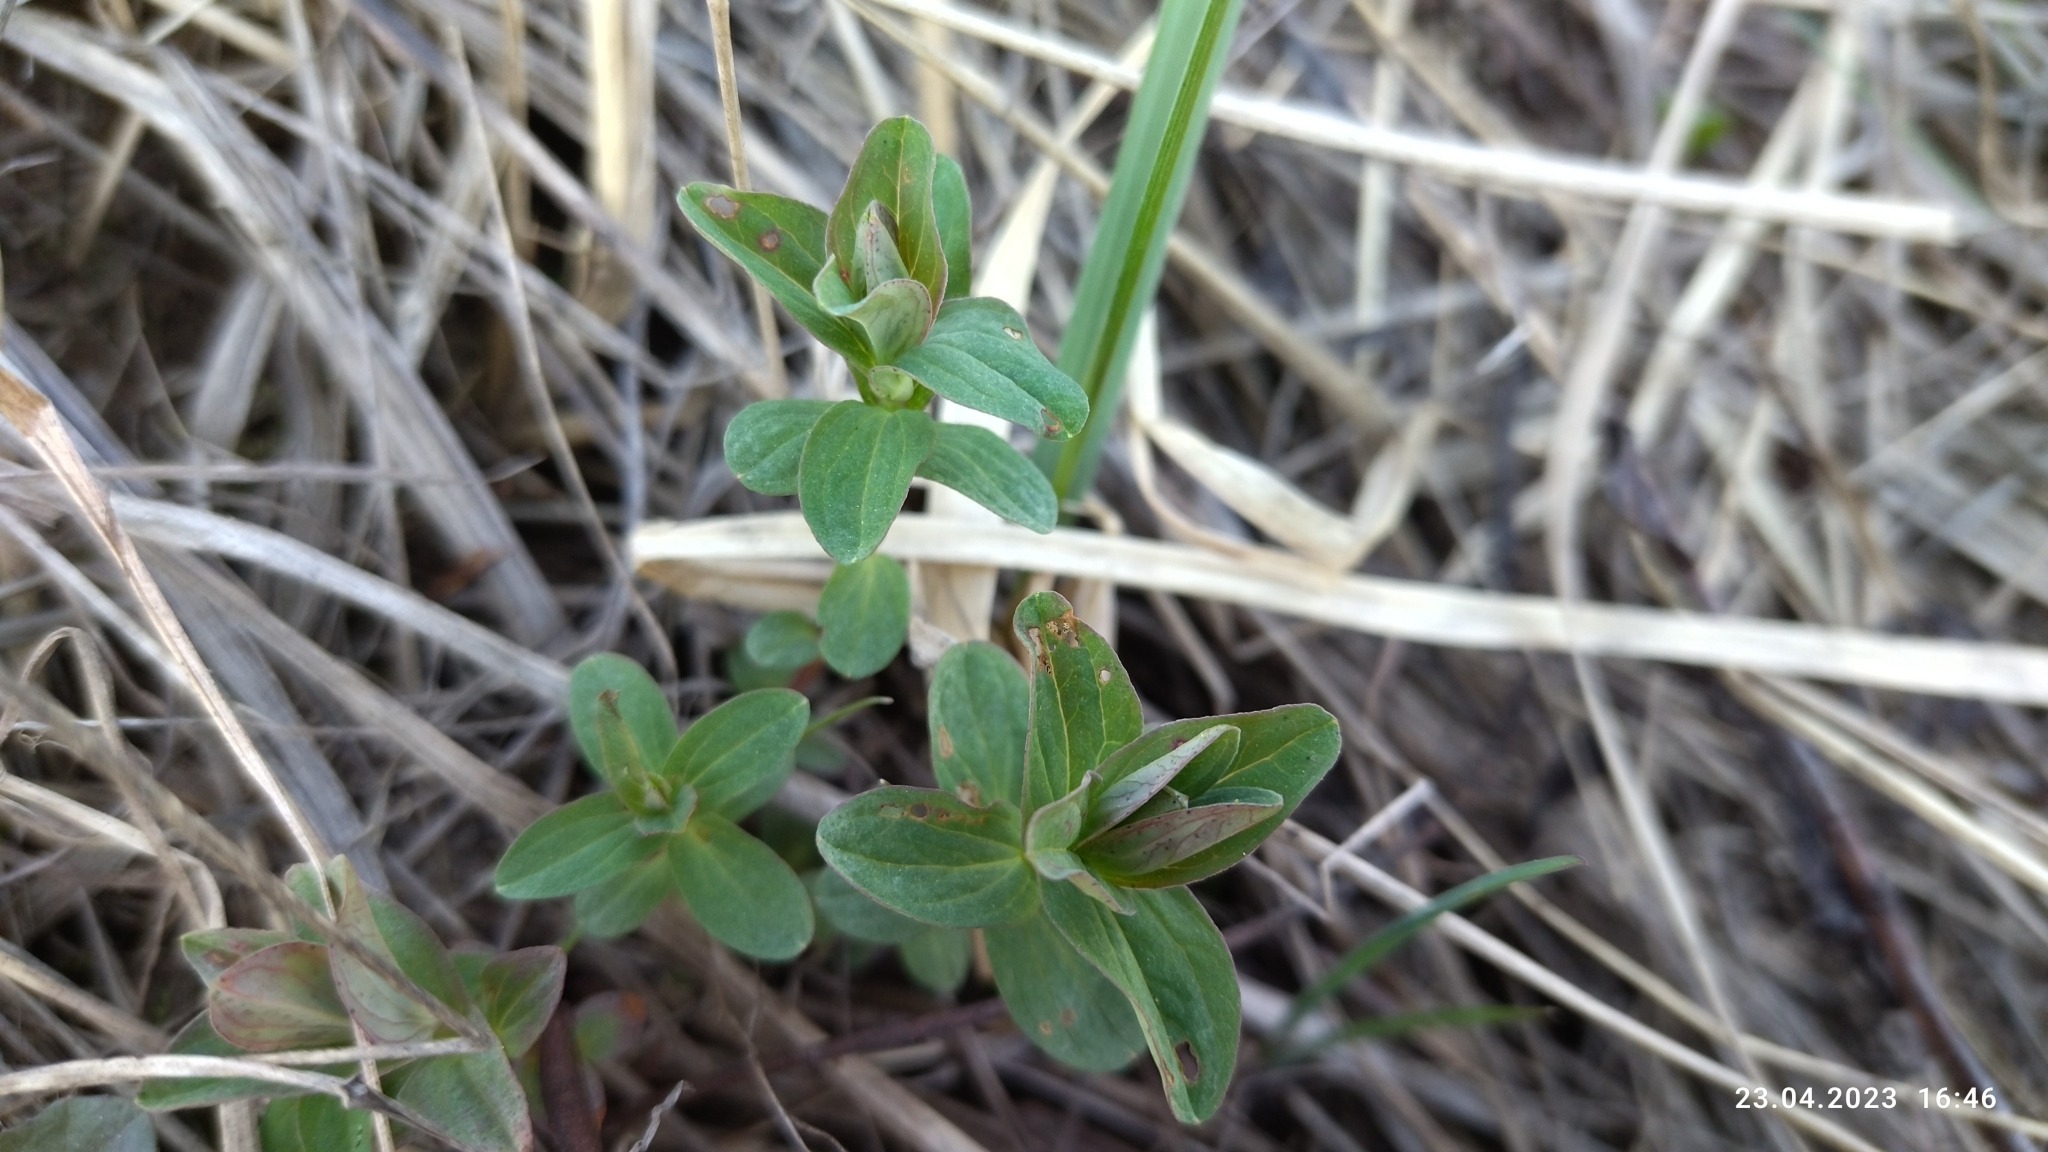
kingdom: Plantae
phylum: Tracheophyta
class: Magnoliopsida
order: Malpighiales
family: Hypericaceae
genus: Hypericum
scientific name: Hypericum maculatum
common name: Imperforate st. john's-wort
